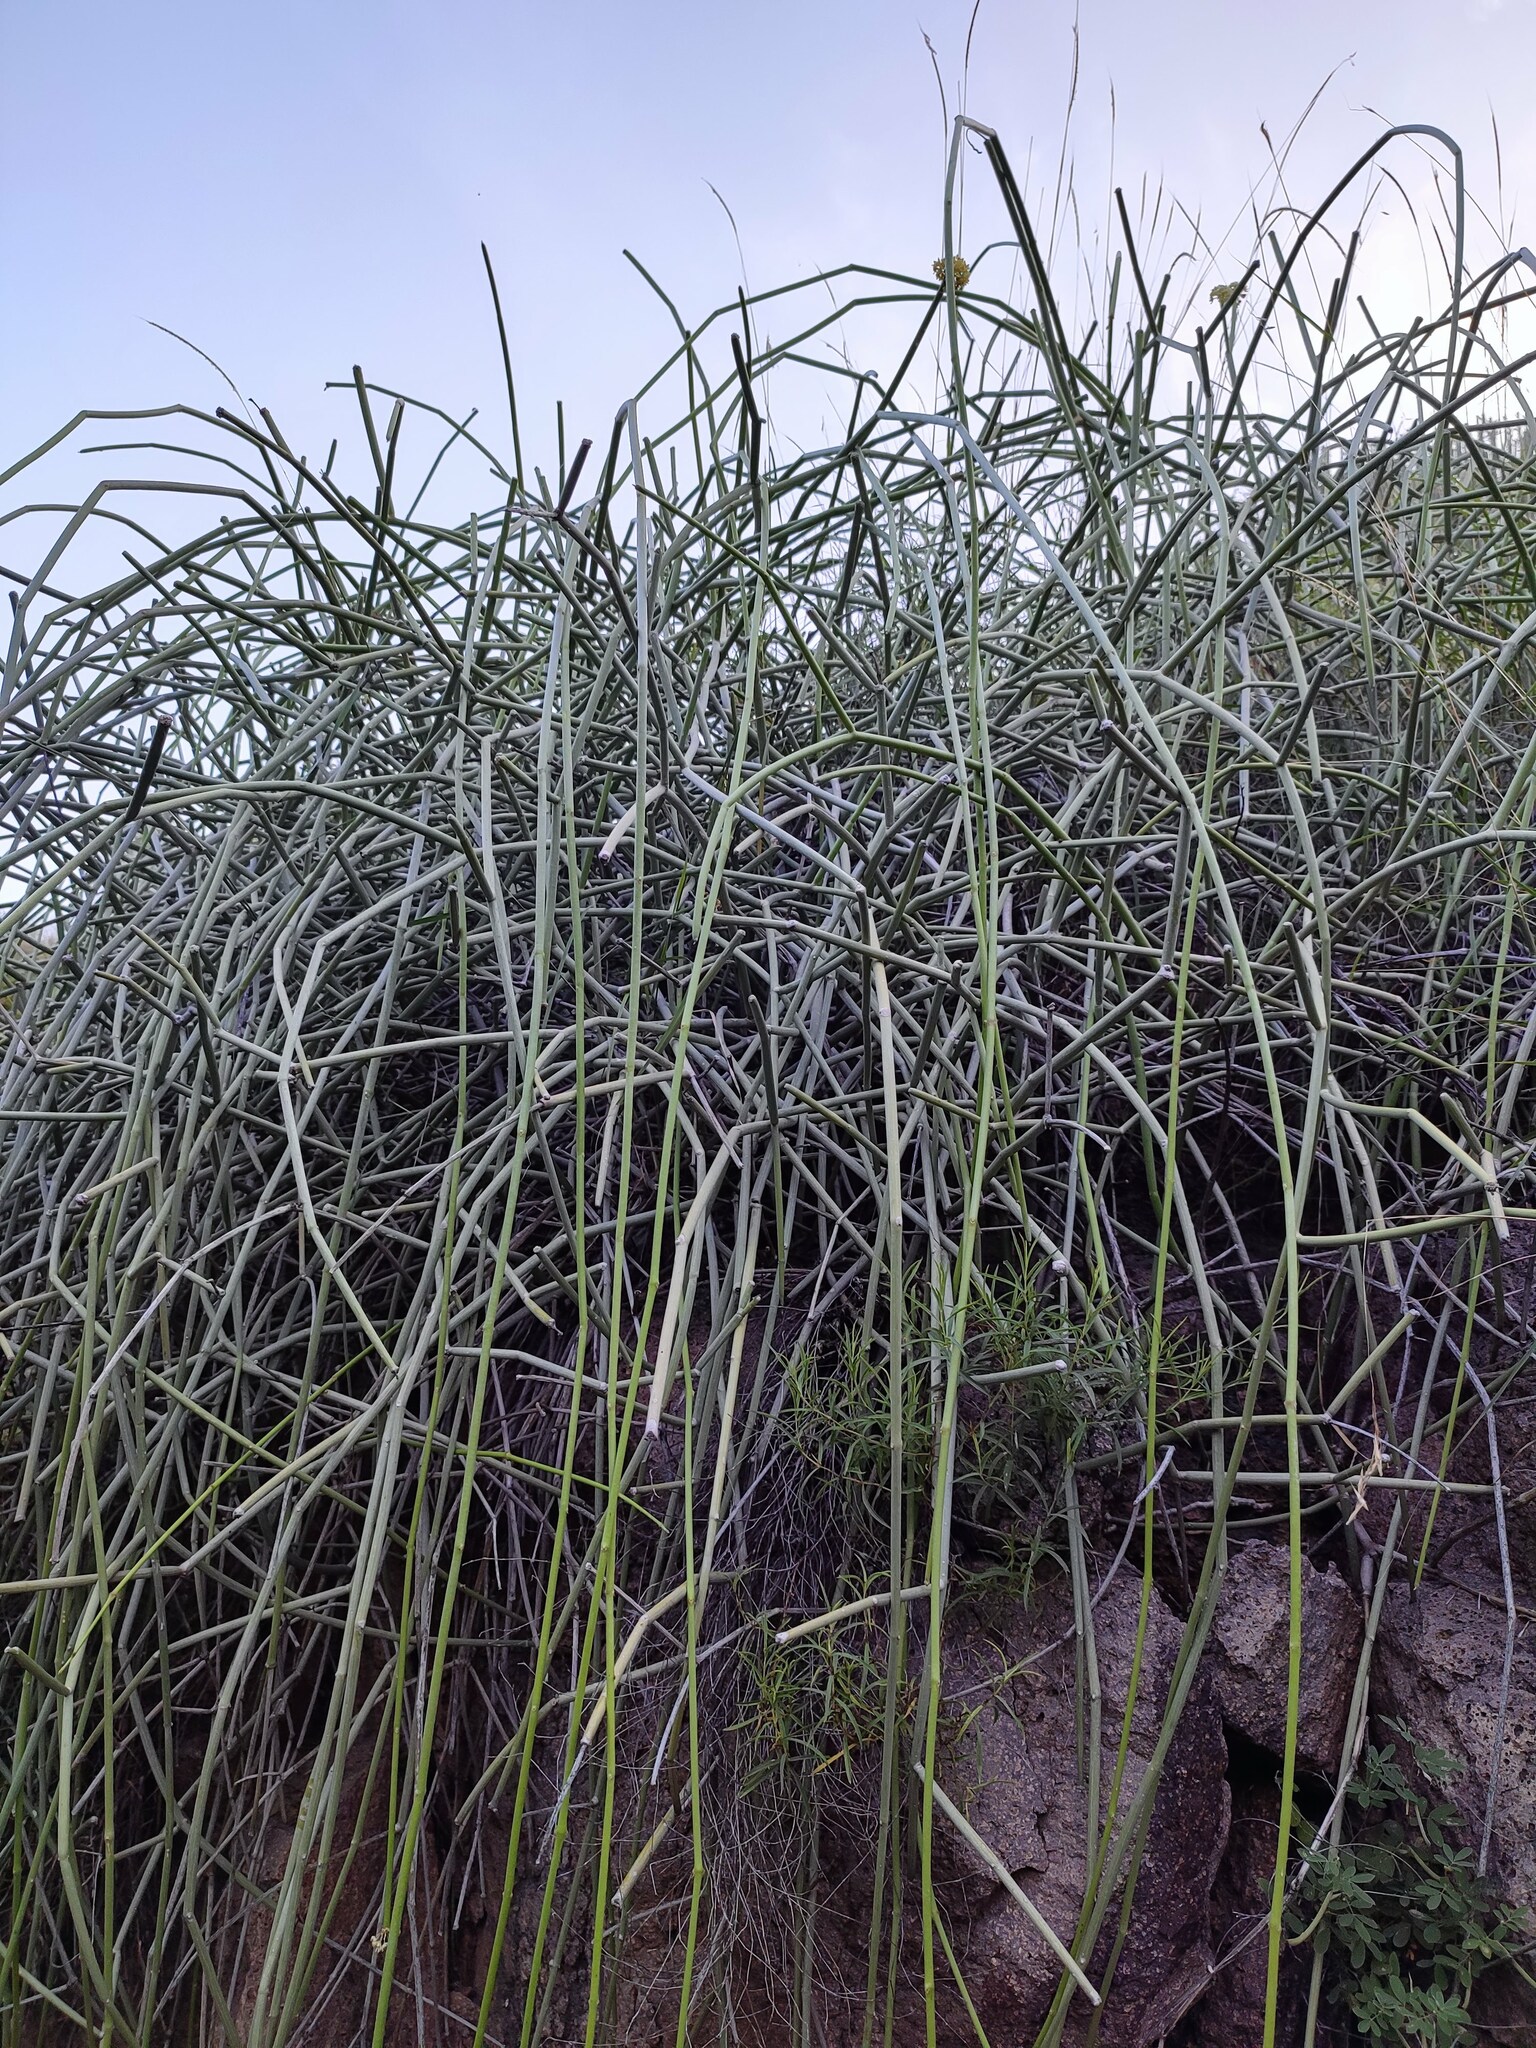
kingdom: Plantae
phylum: Tracheophyta
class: Magnoliopsida
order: Gentianales
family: Apocynaceae
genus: Cynanchum
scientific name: Cynanchum acidum
